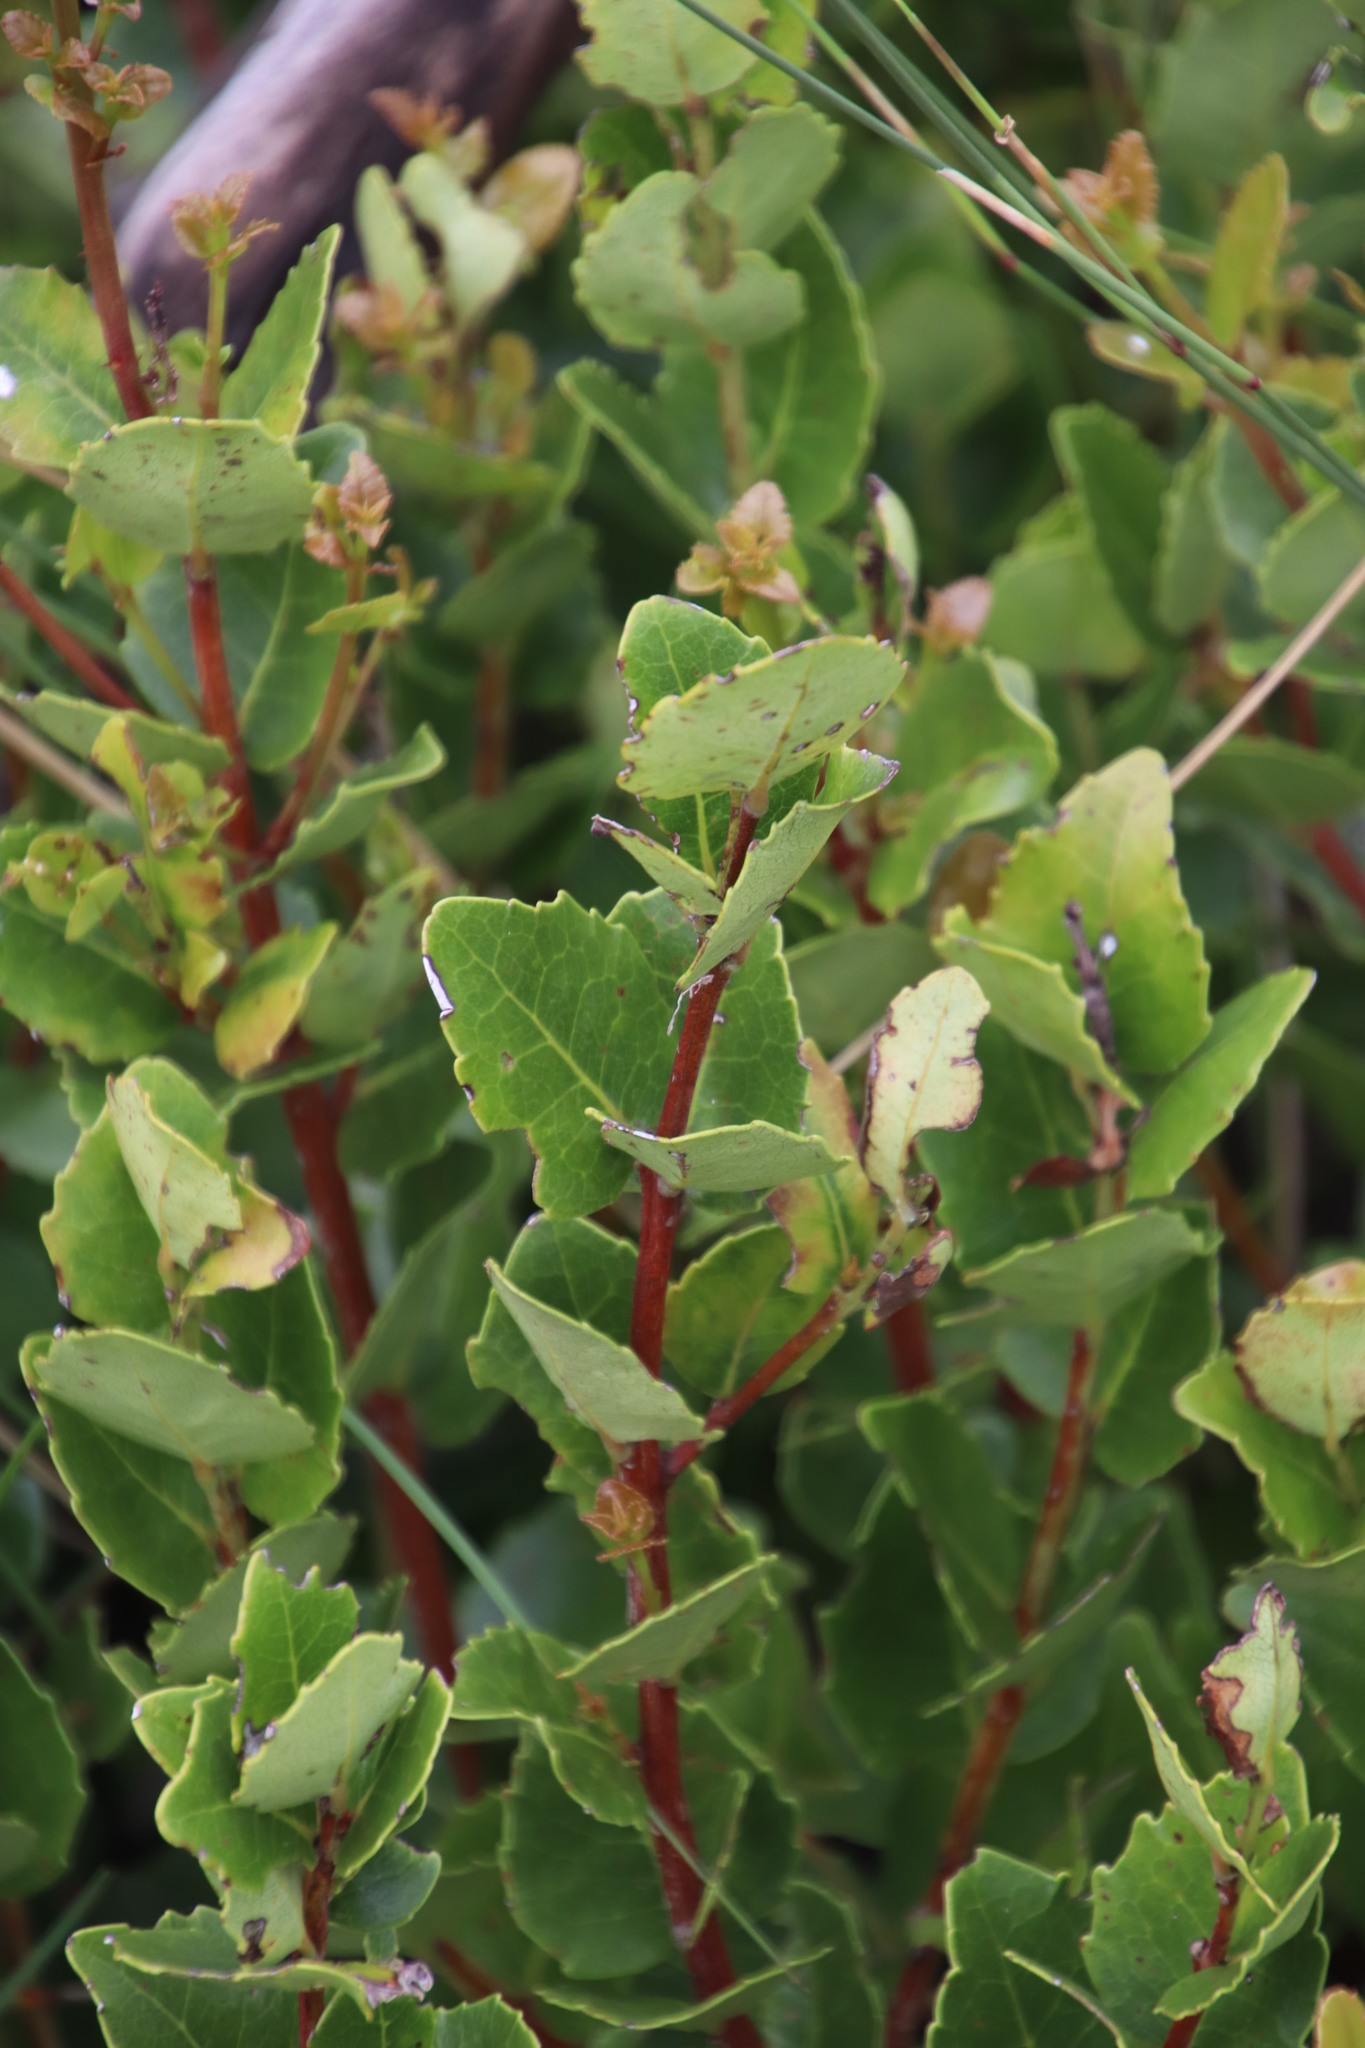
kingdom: Plantae
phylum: Tracheophyta
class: Magnoliopsida
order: Celastrales
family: Celastraceae
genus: Cassine
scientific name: Cassine peragua
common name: Cape saffron
